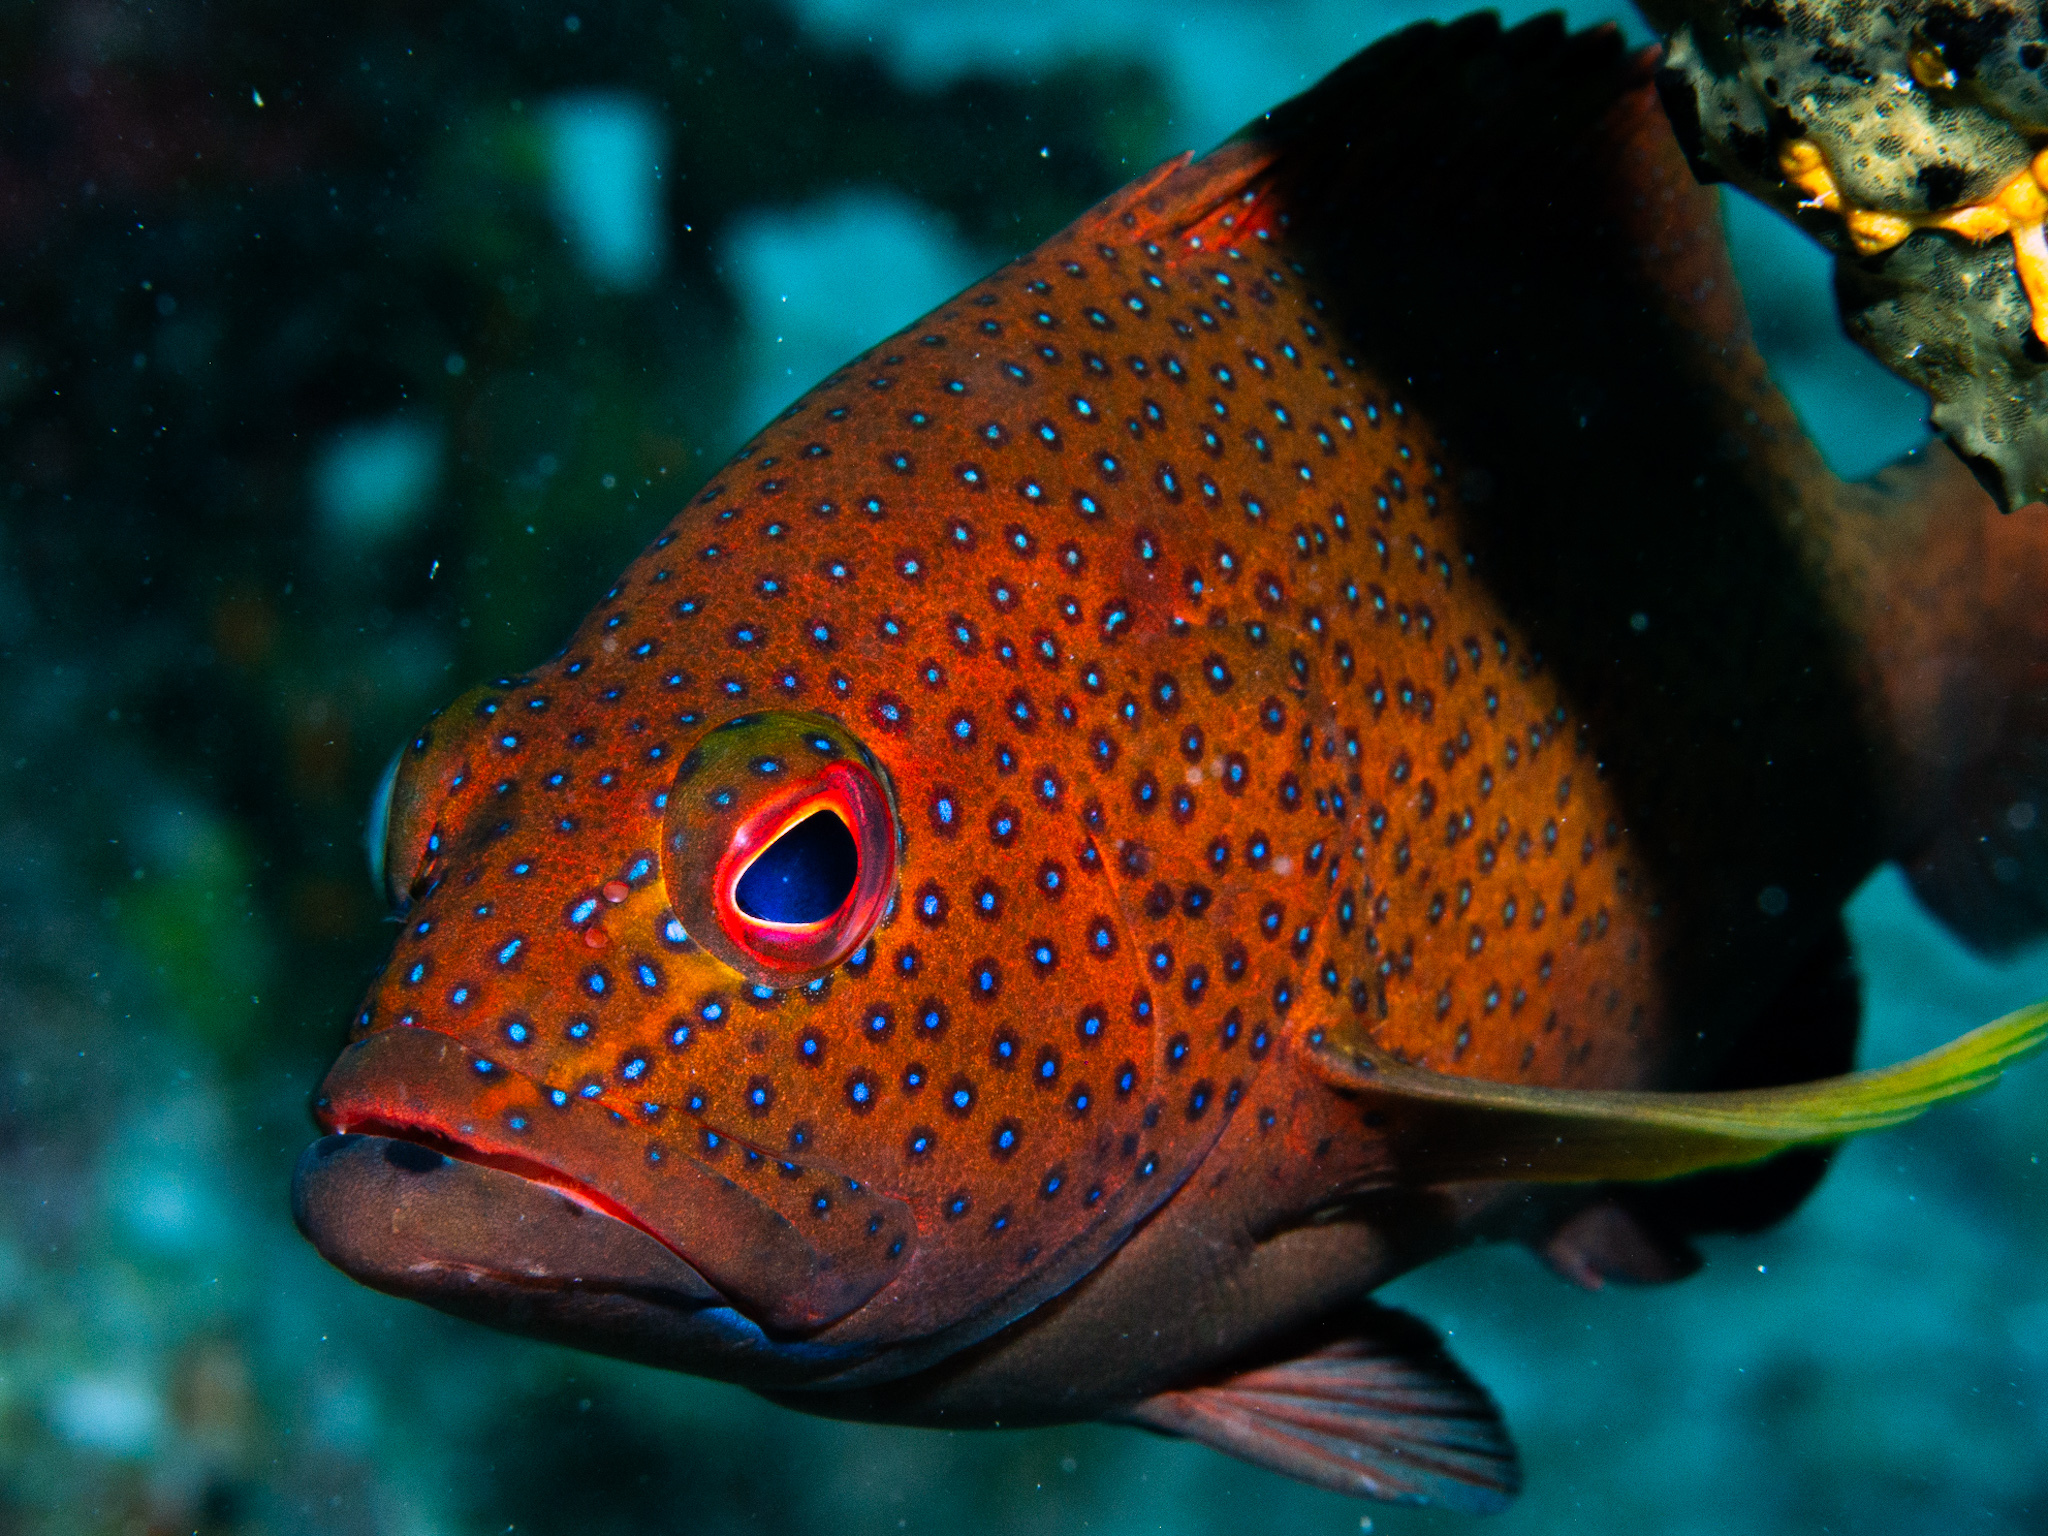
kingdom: Animalia
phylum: Chordata
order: Perciformes
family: Serranidae
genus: Cephalopholis
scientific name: Cephalopholis fulva
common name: Butterfish
